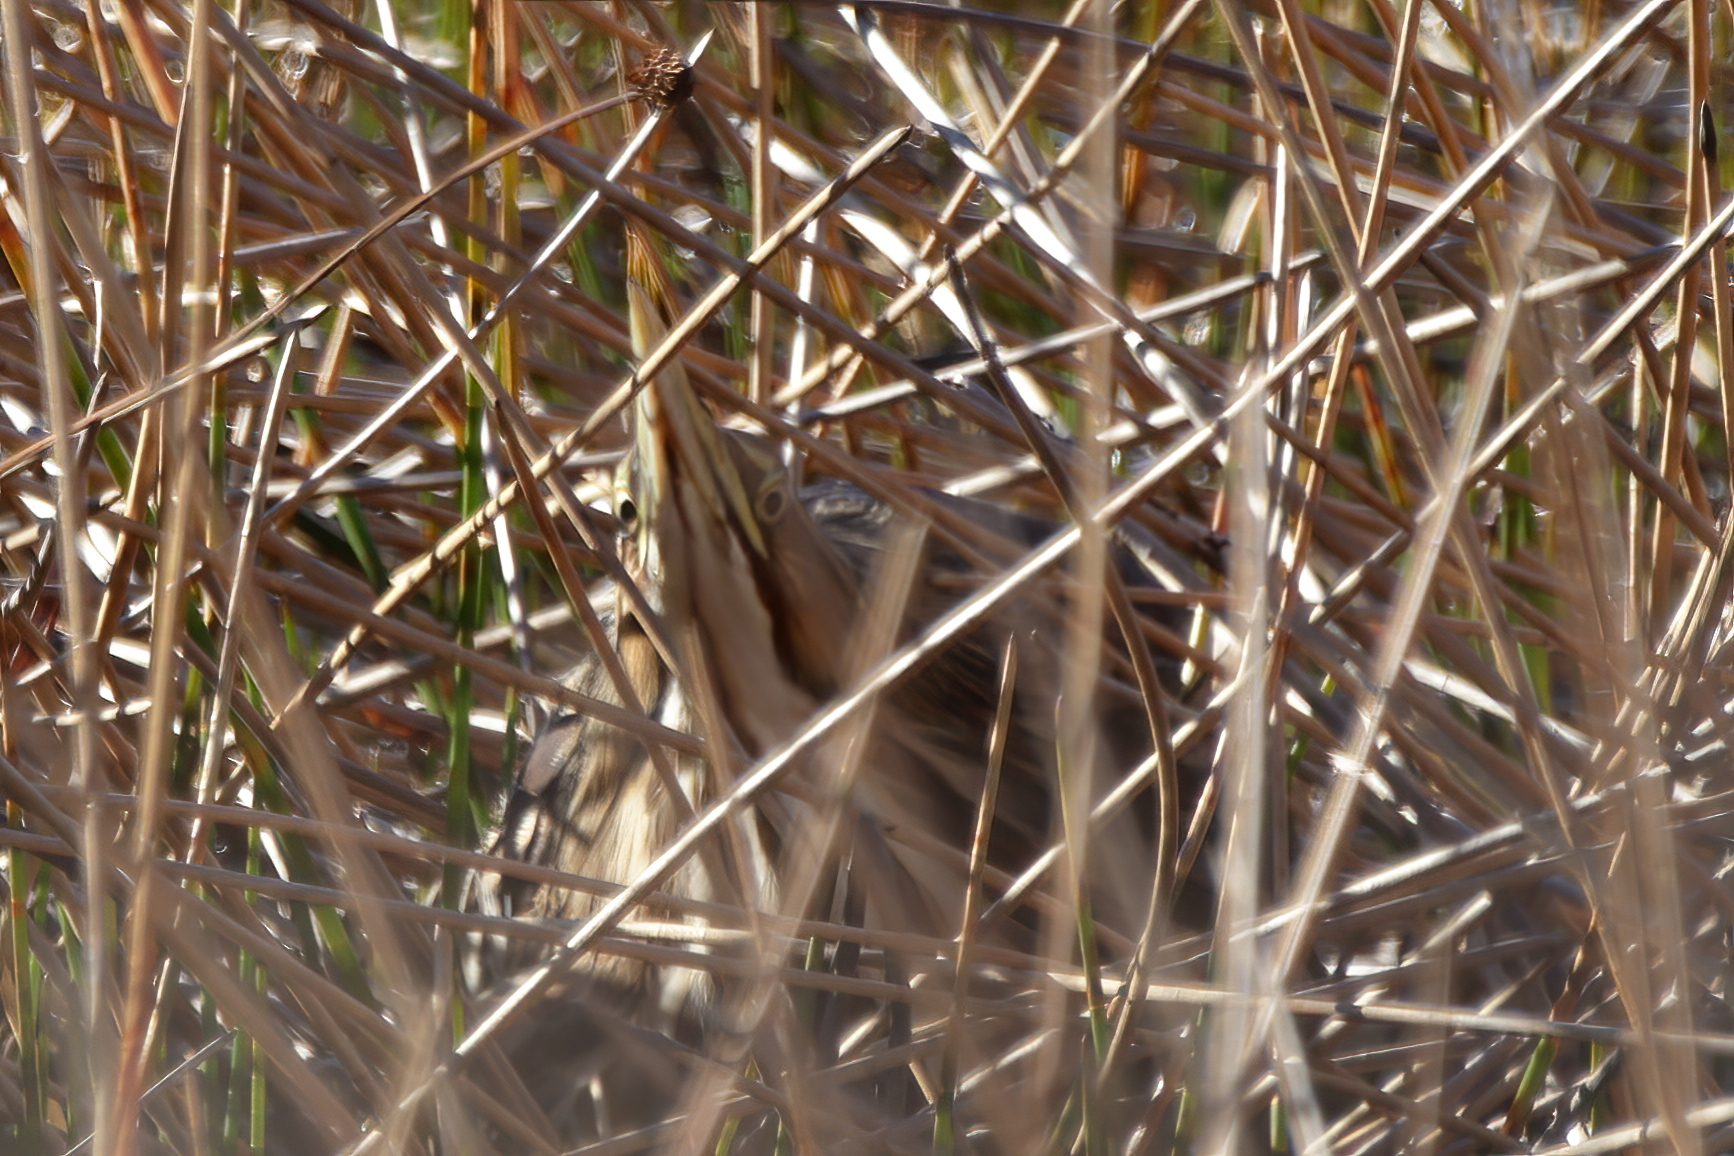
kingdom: Animalia
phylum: Chordata
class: Aves
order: Pelecaniformes
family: Ardeidae
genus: Botaurus
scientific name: Botaurus lentiginosus
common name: American bittern
